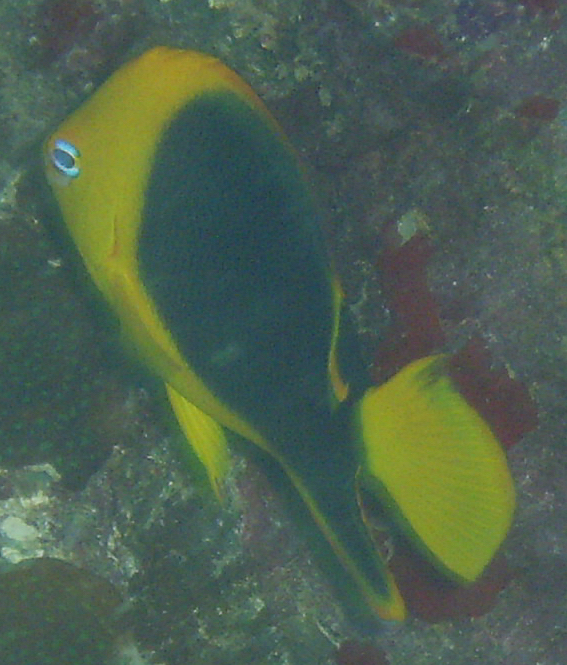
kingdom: Animalia
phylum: Chordata
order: Perciformes
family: Pomacanthidae
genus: Holacanthus
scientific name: Holacanthus tricolor
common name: Rock beauty
